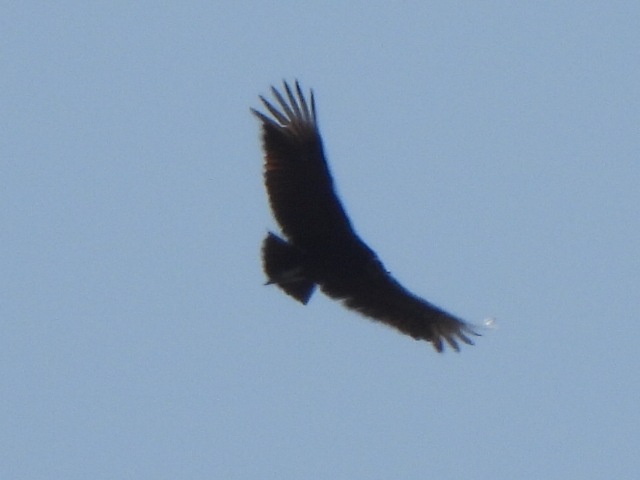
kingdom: Animalia
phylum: Chordata
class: Aves
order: Accipitriformes
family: Cathartidae
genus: Coragyps
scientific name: Coragyps atratus
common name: Black vulture
